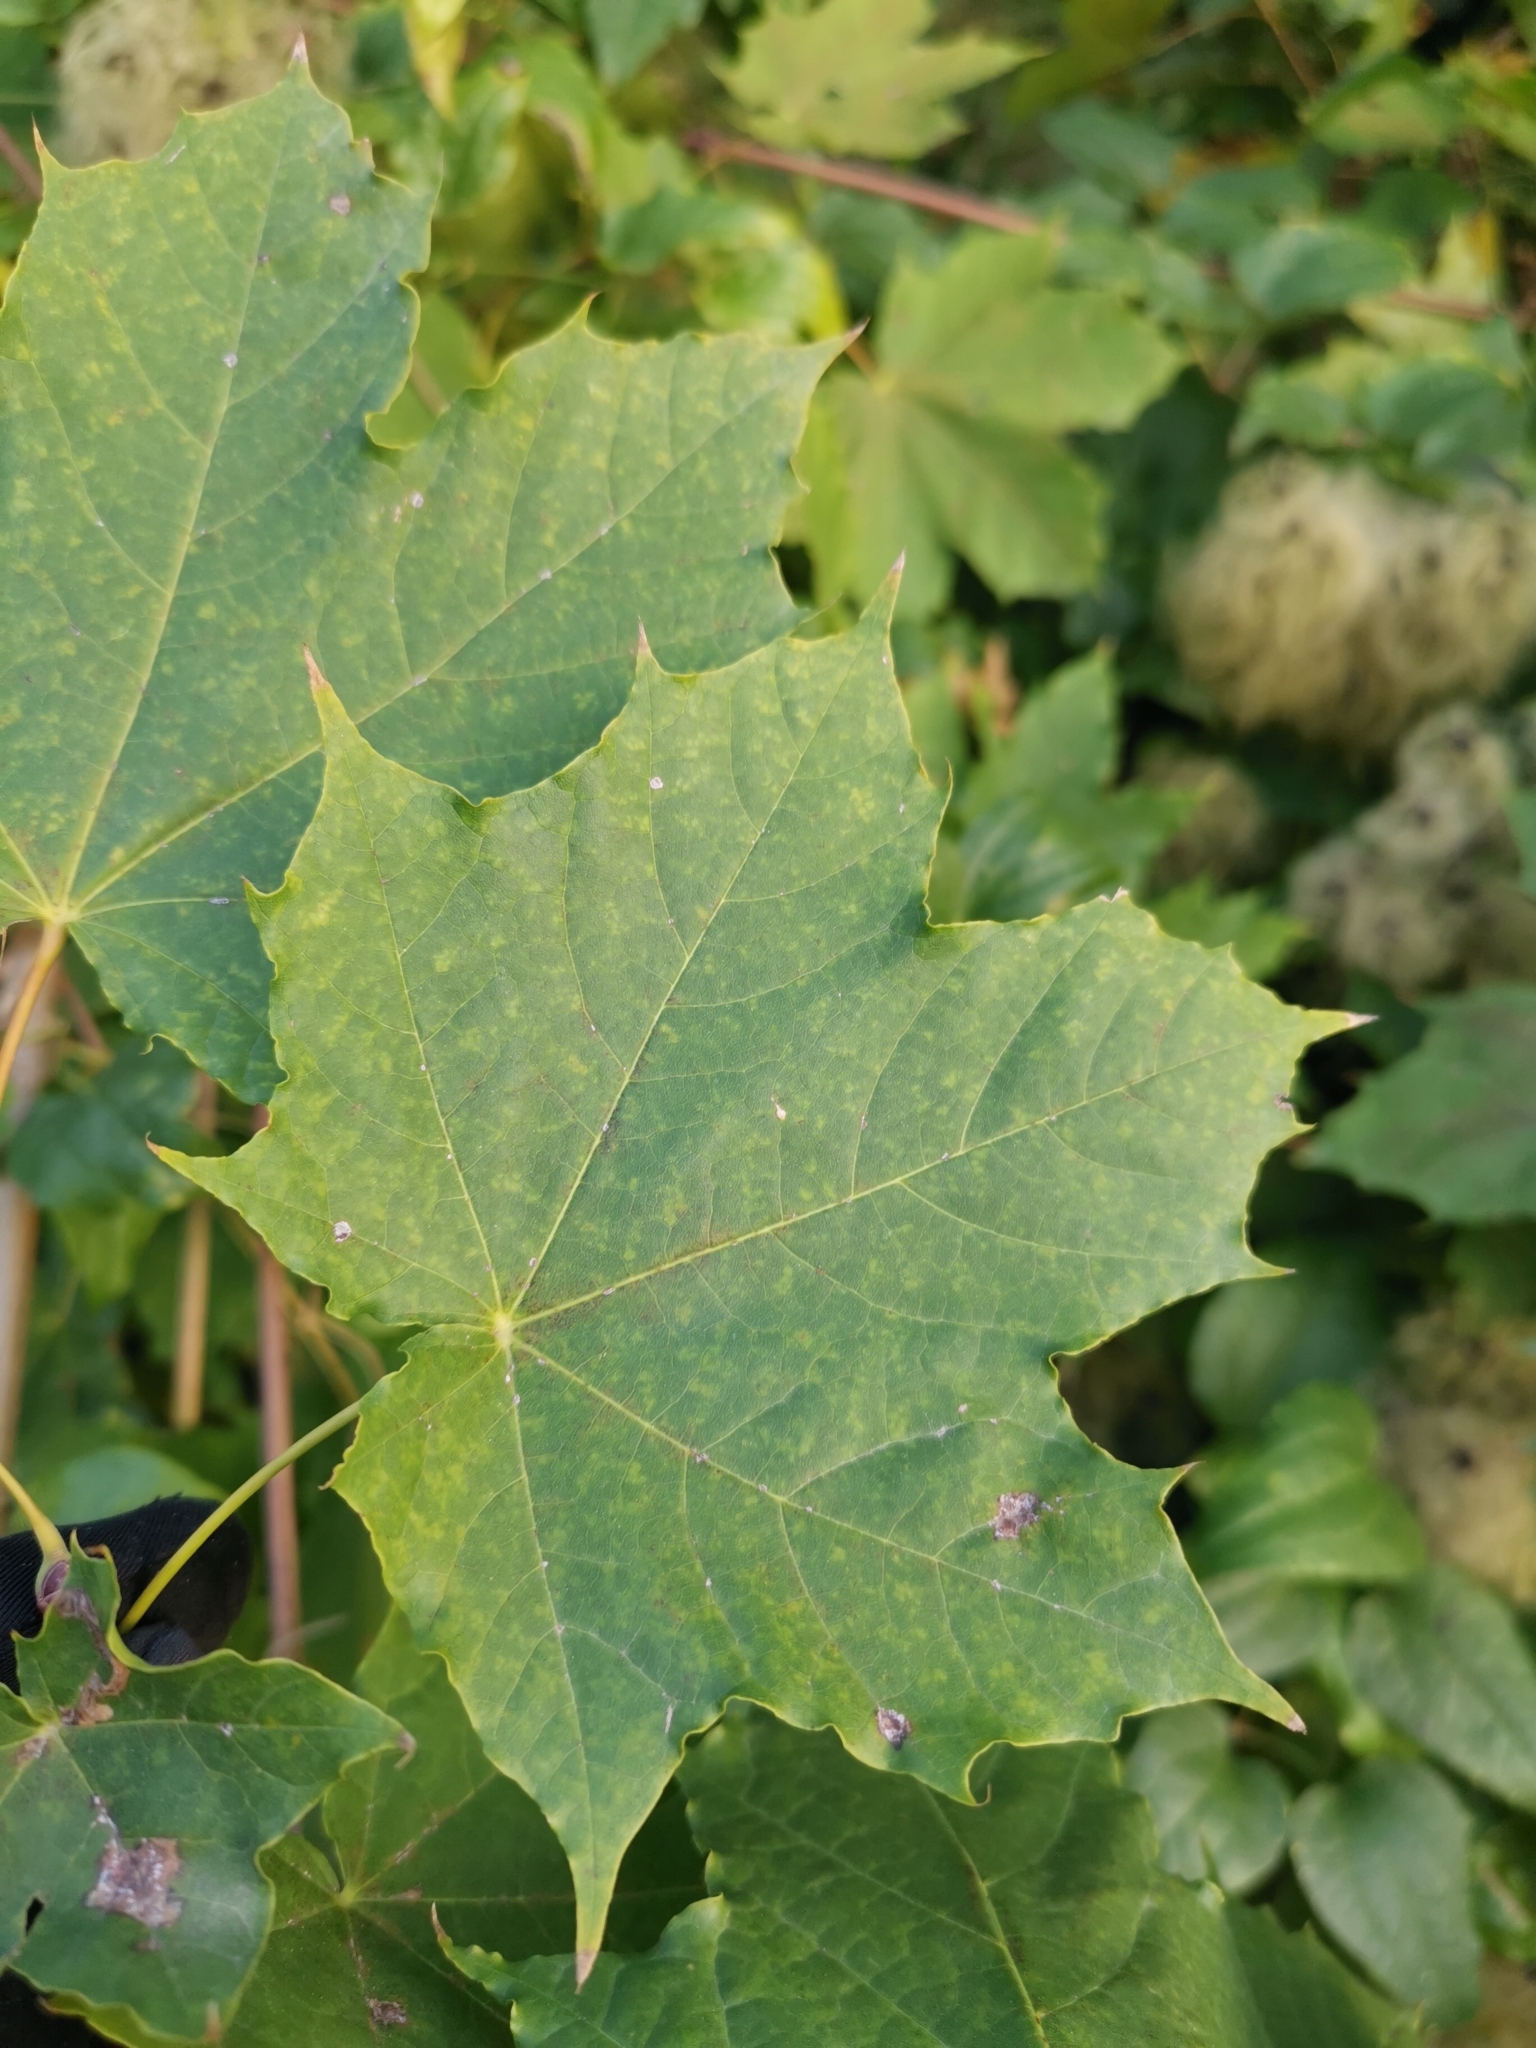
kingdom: Plantae
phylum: Tracheophyta
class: Magnoliopsida
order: Sapindales
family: Sapindaceae
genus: Acer
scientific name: Acer platanoides
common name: Norway maple
